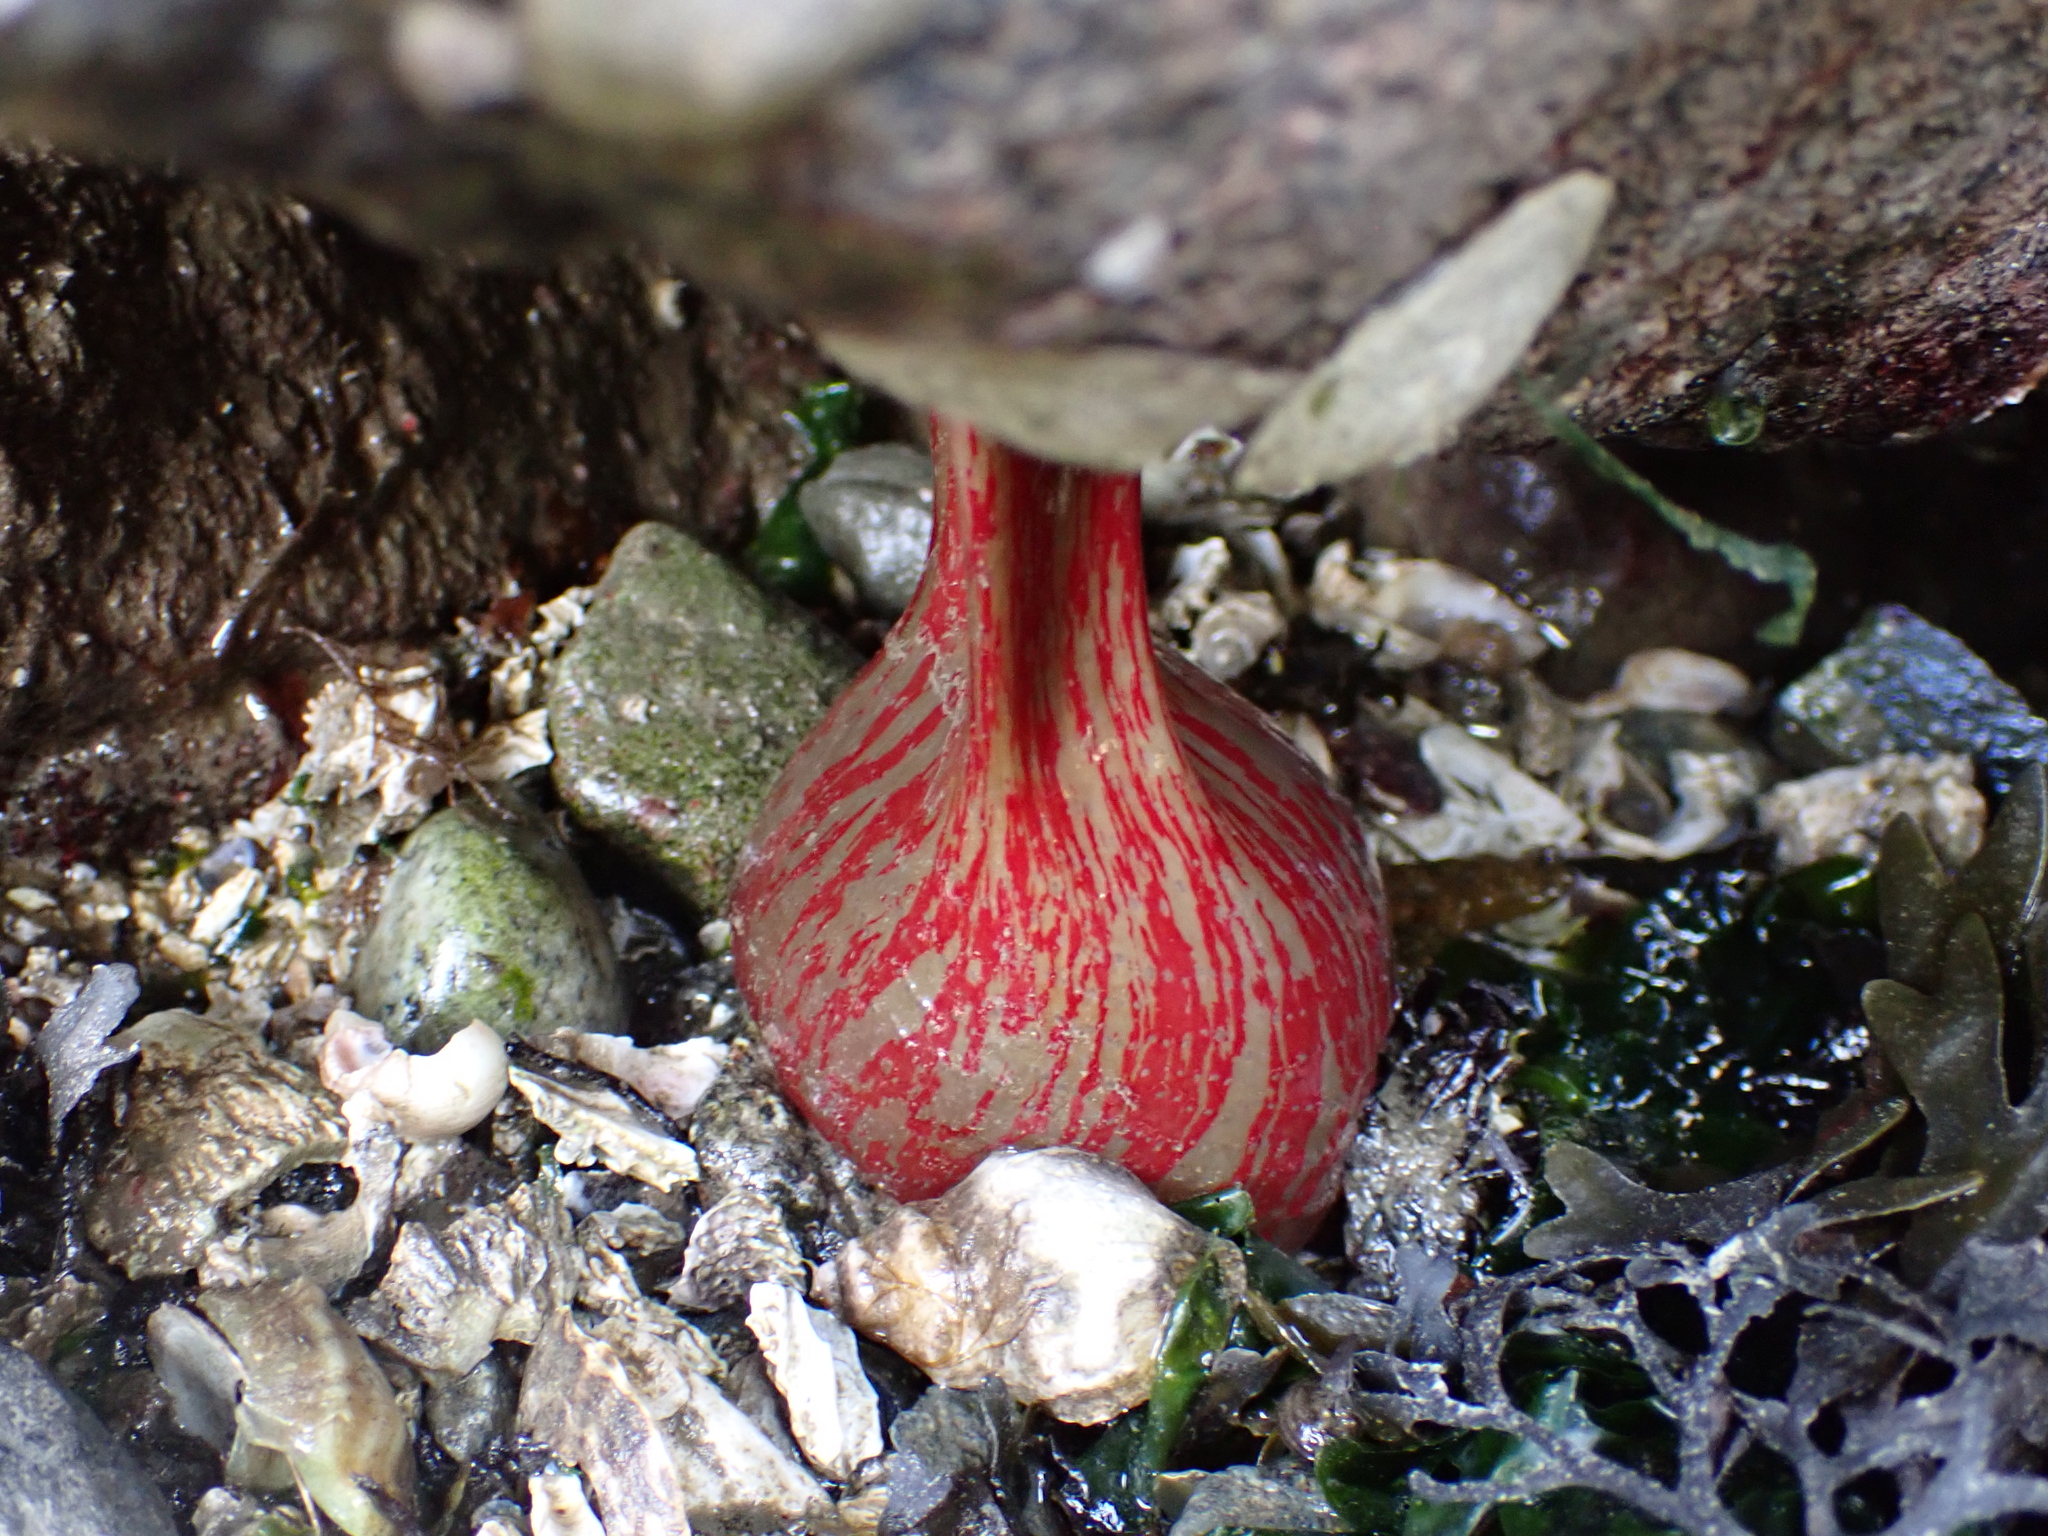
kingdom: Animalia
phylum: Cnidaria
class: Anthozoa
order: Actiniaria
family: Actiniidae
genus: Urticina
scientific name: Urticina grebelnyi
